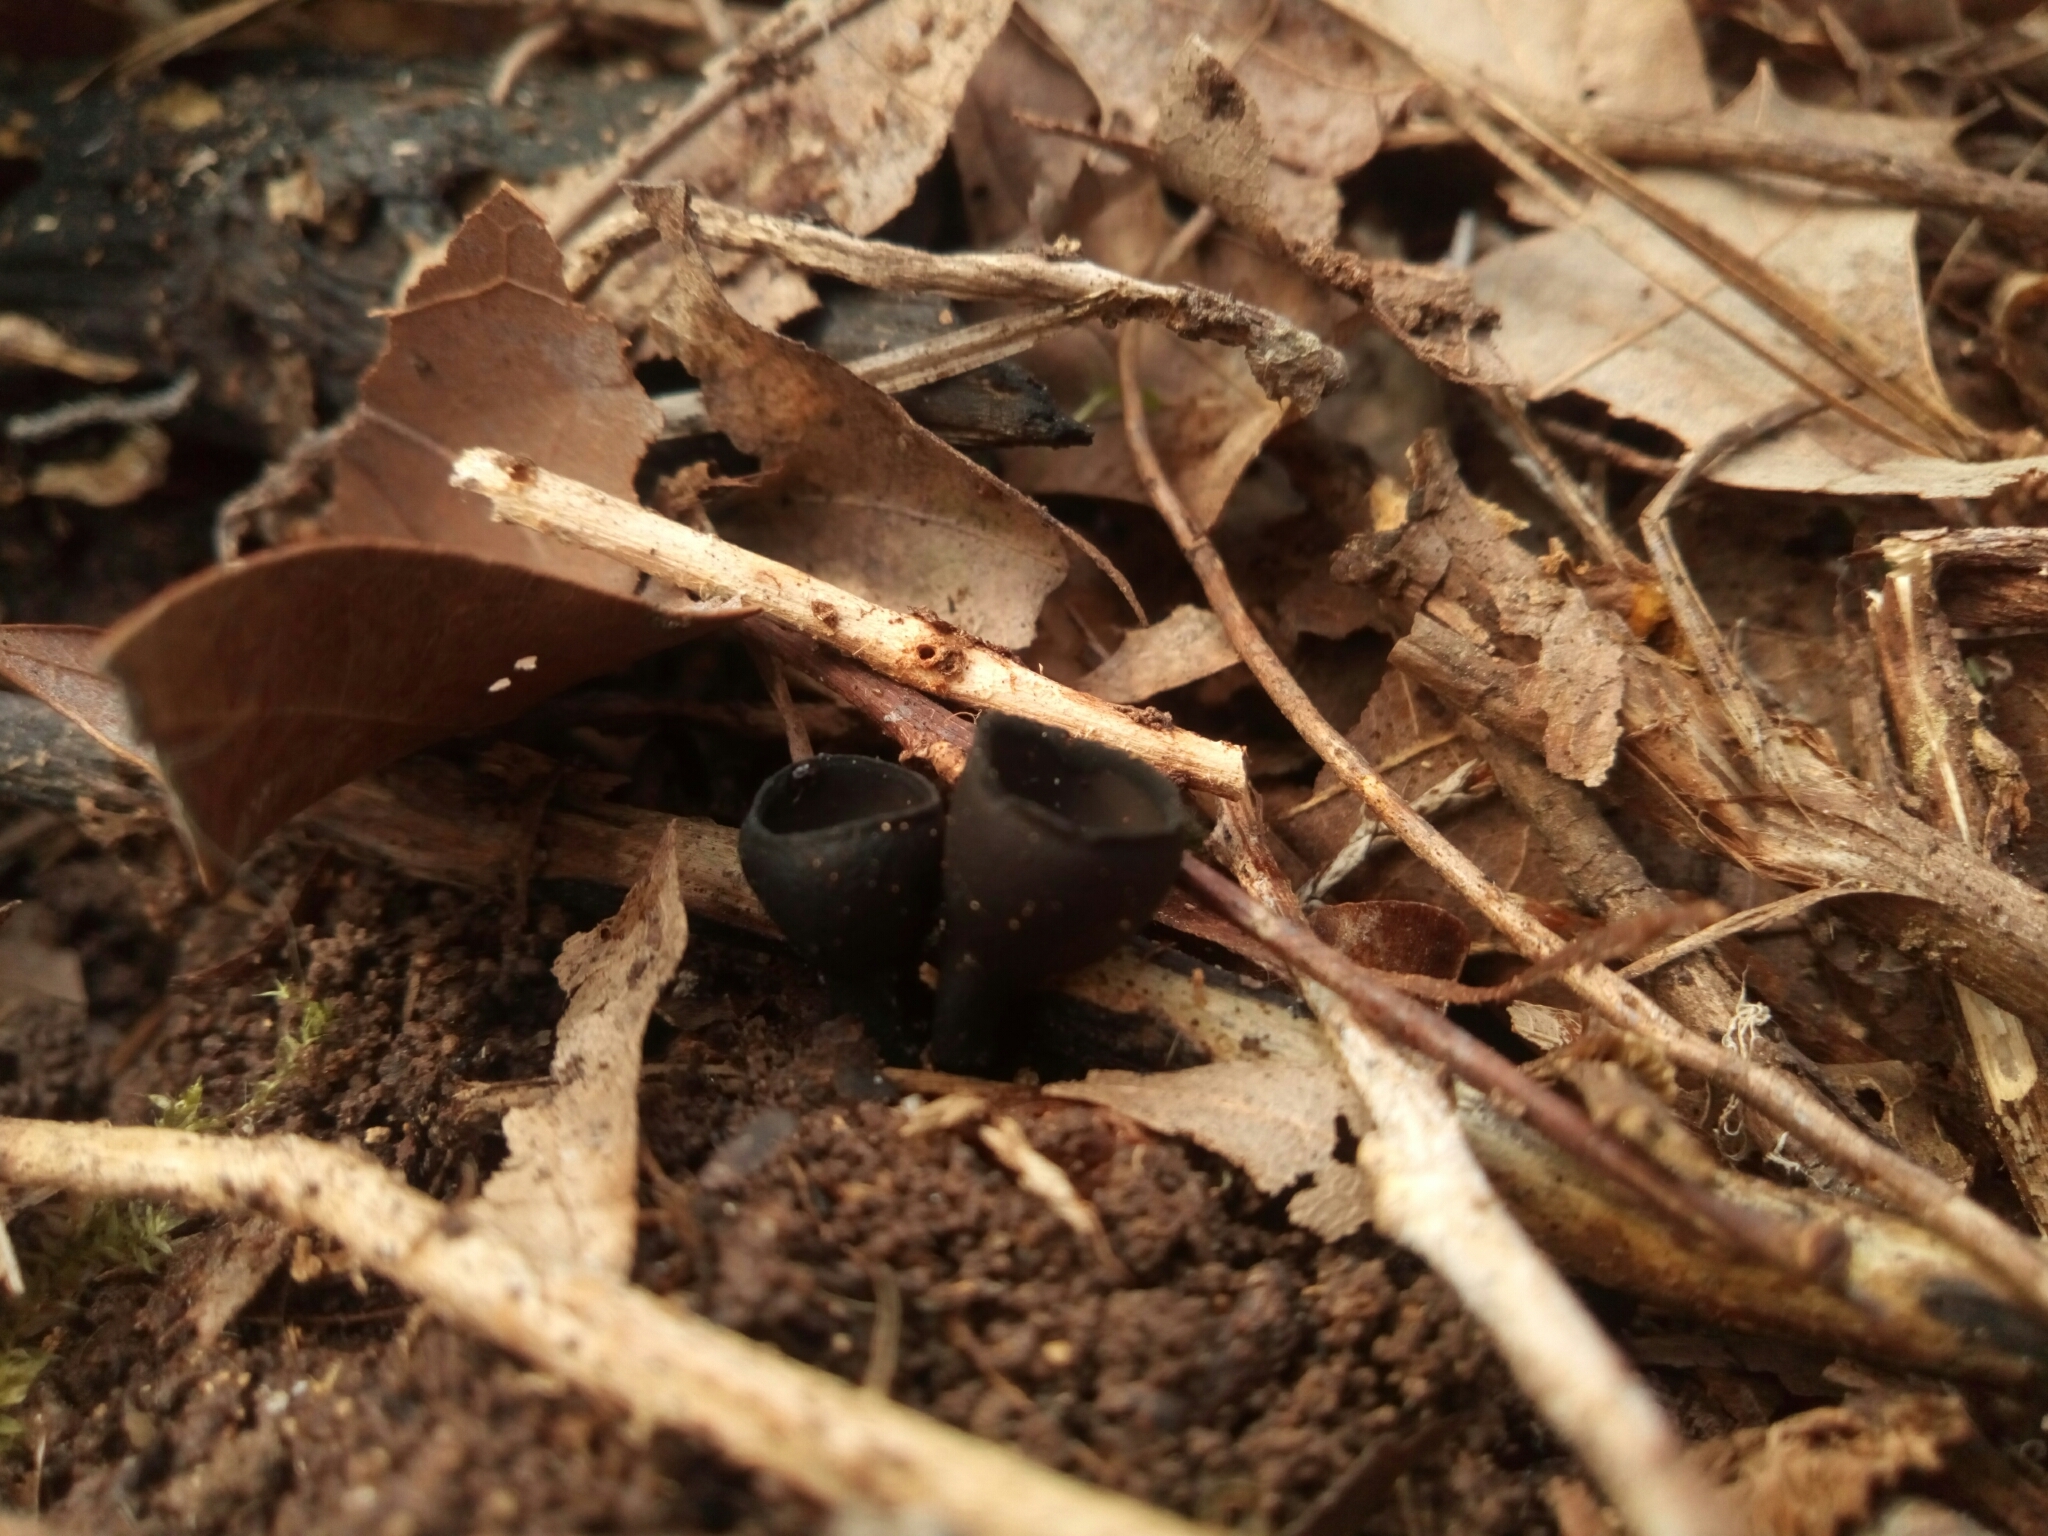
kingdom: Fungi
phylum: Ascomycota
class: Pezizomycetes
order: Pezizales
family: Sarcosomataceae
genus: Urnula
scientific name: Urnula craterium
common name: Devil's urn
